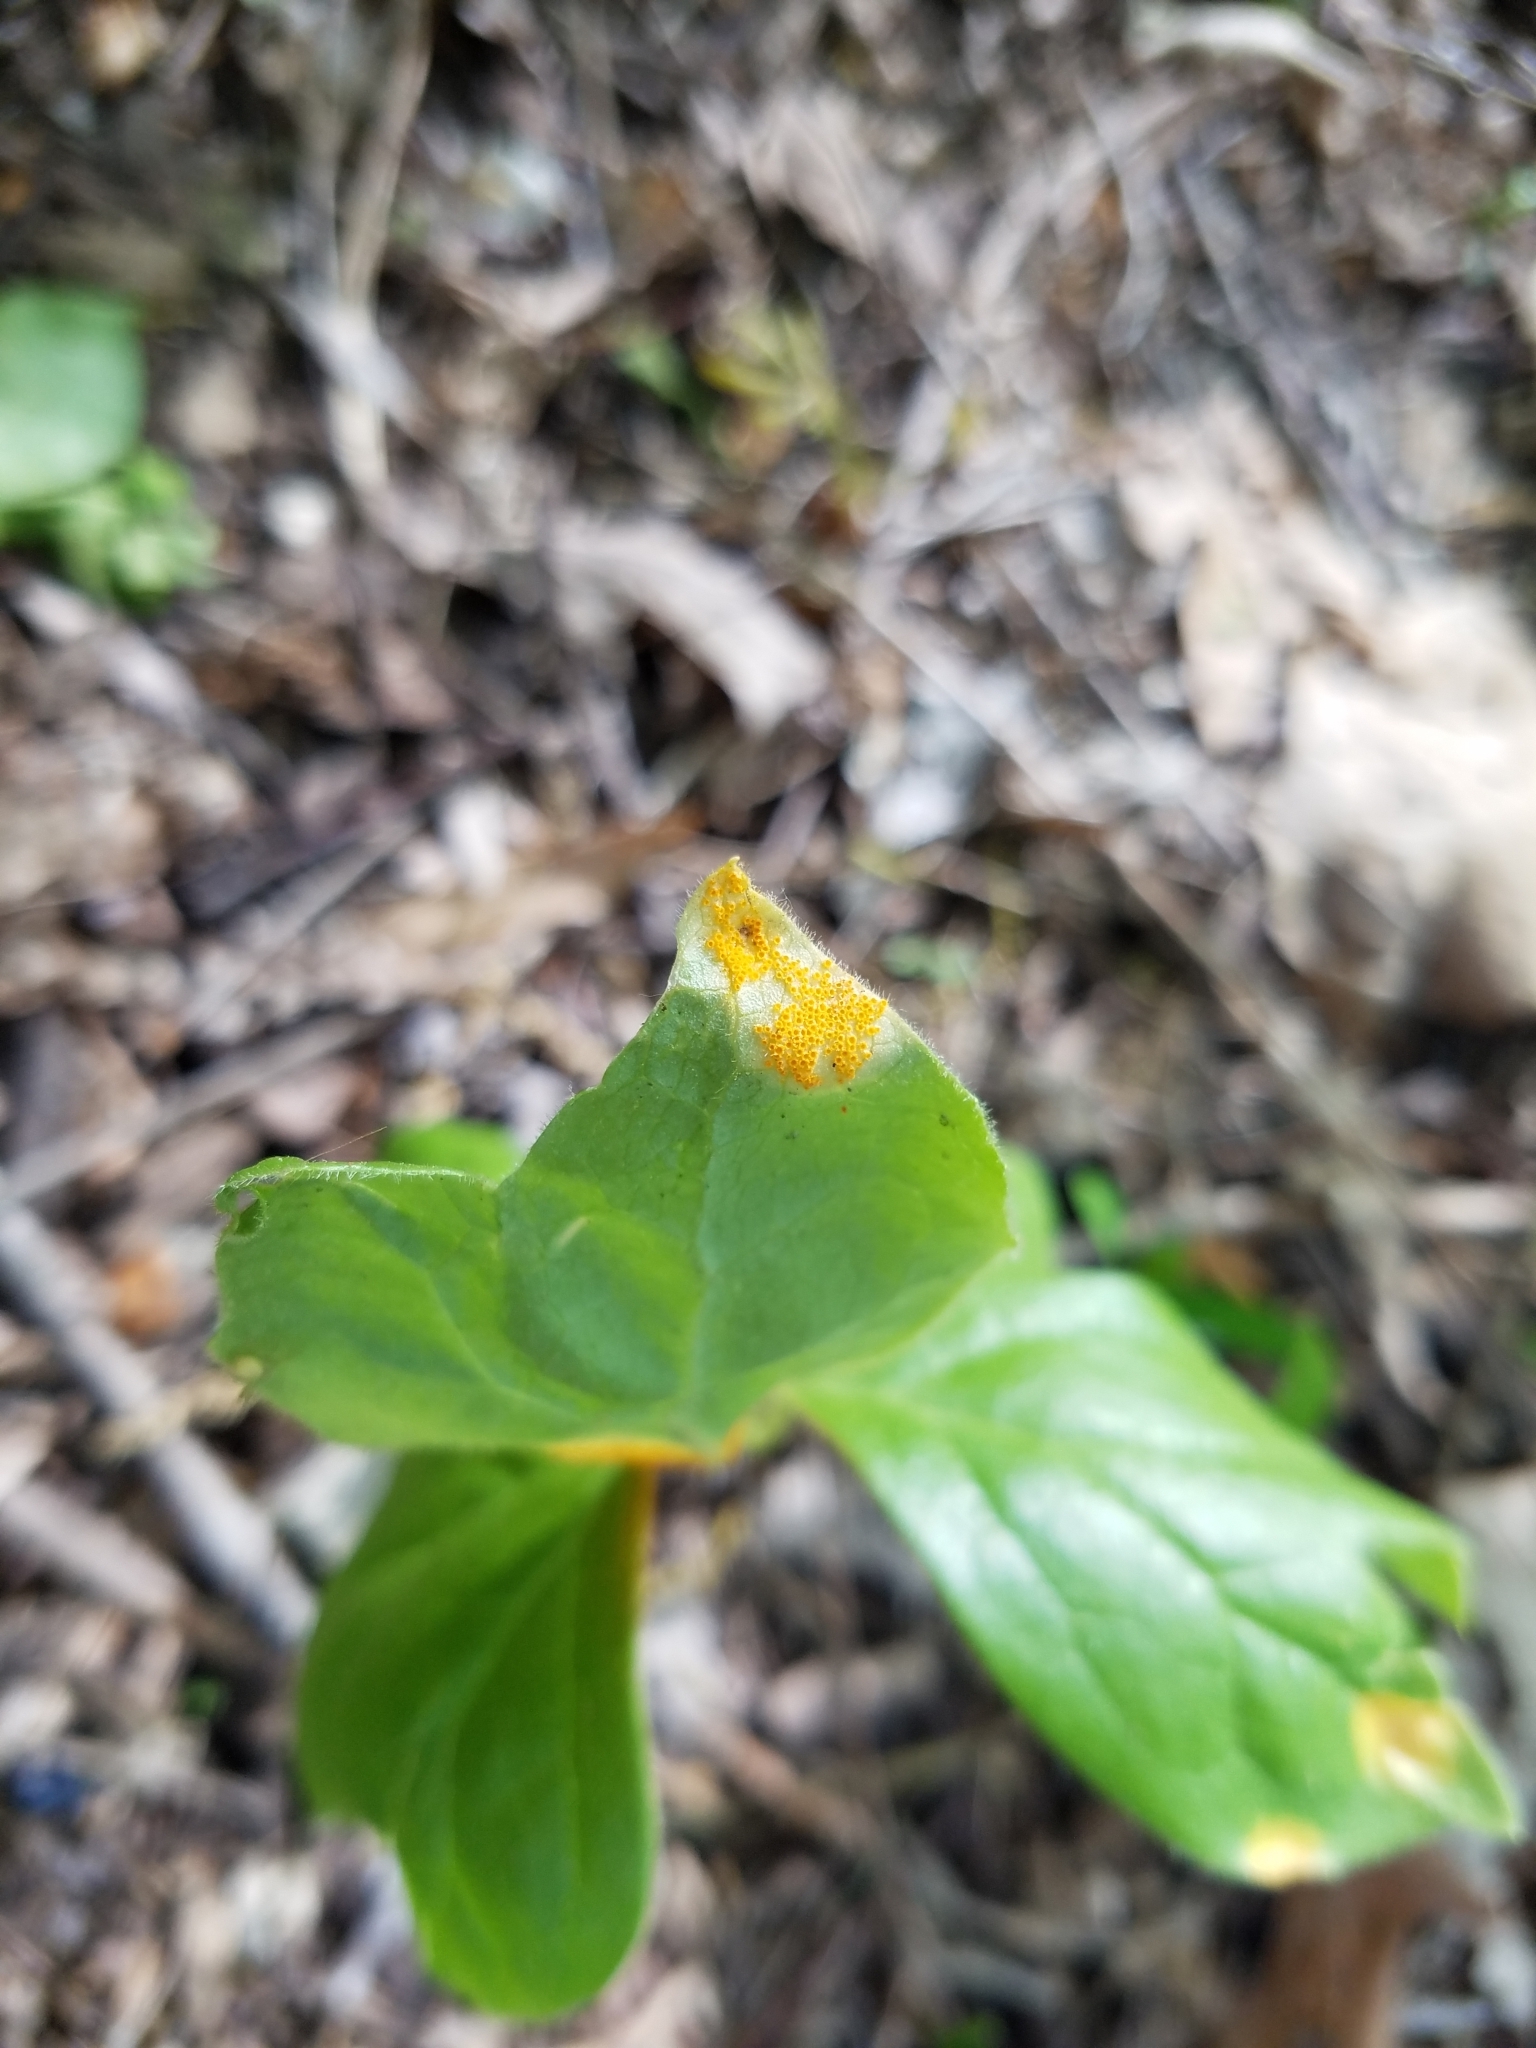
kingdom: Fungi
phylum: Basidiomycota
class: Pucciniomycetes
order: Pucciniales
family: Pucciniaceae
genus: Puccinia
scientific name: Puccinia podophylli
